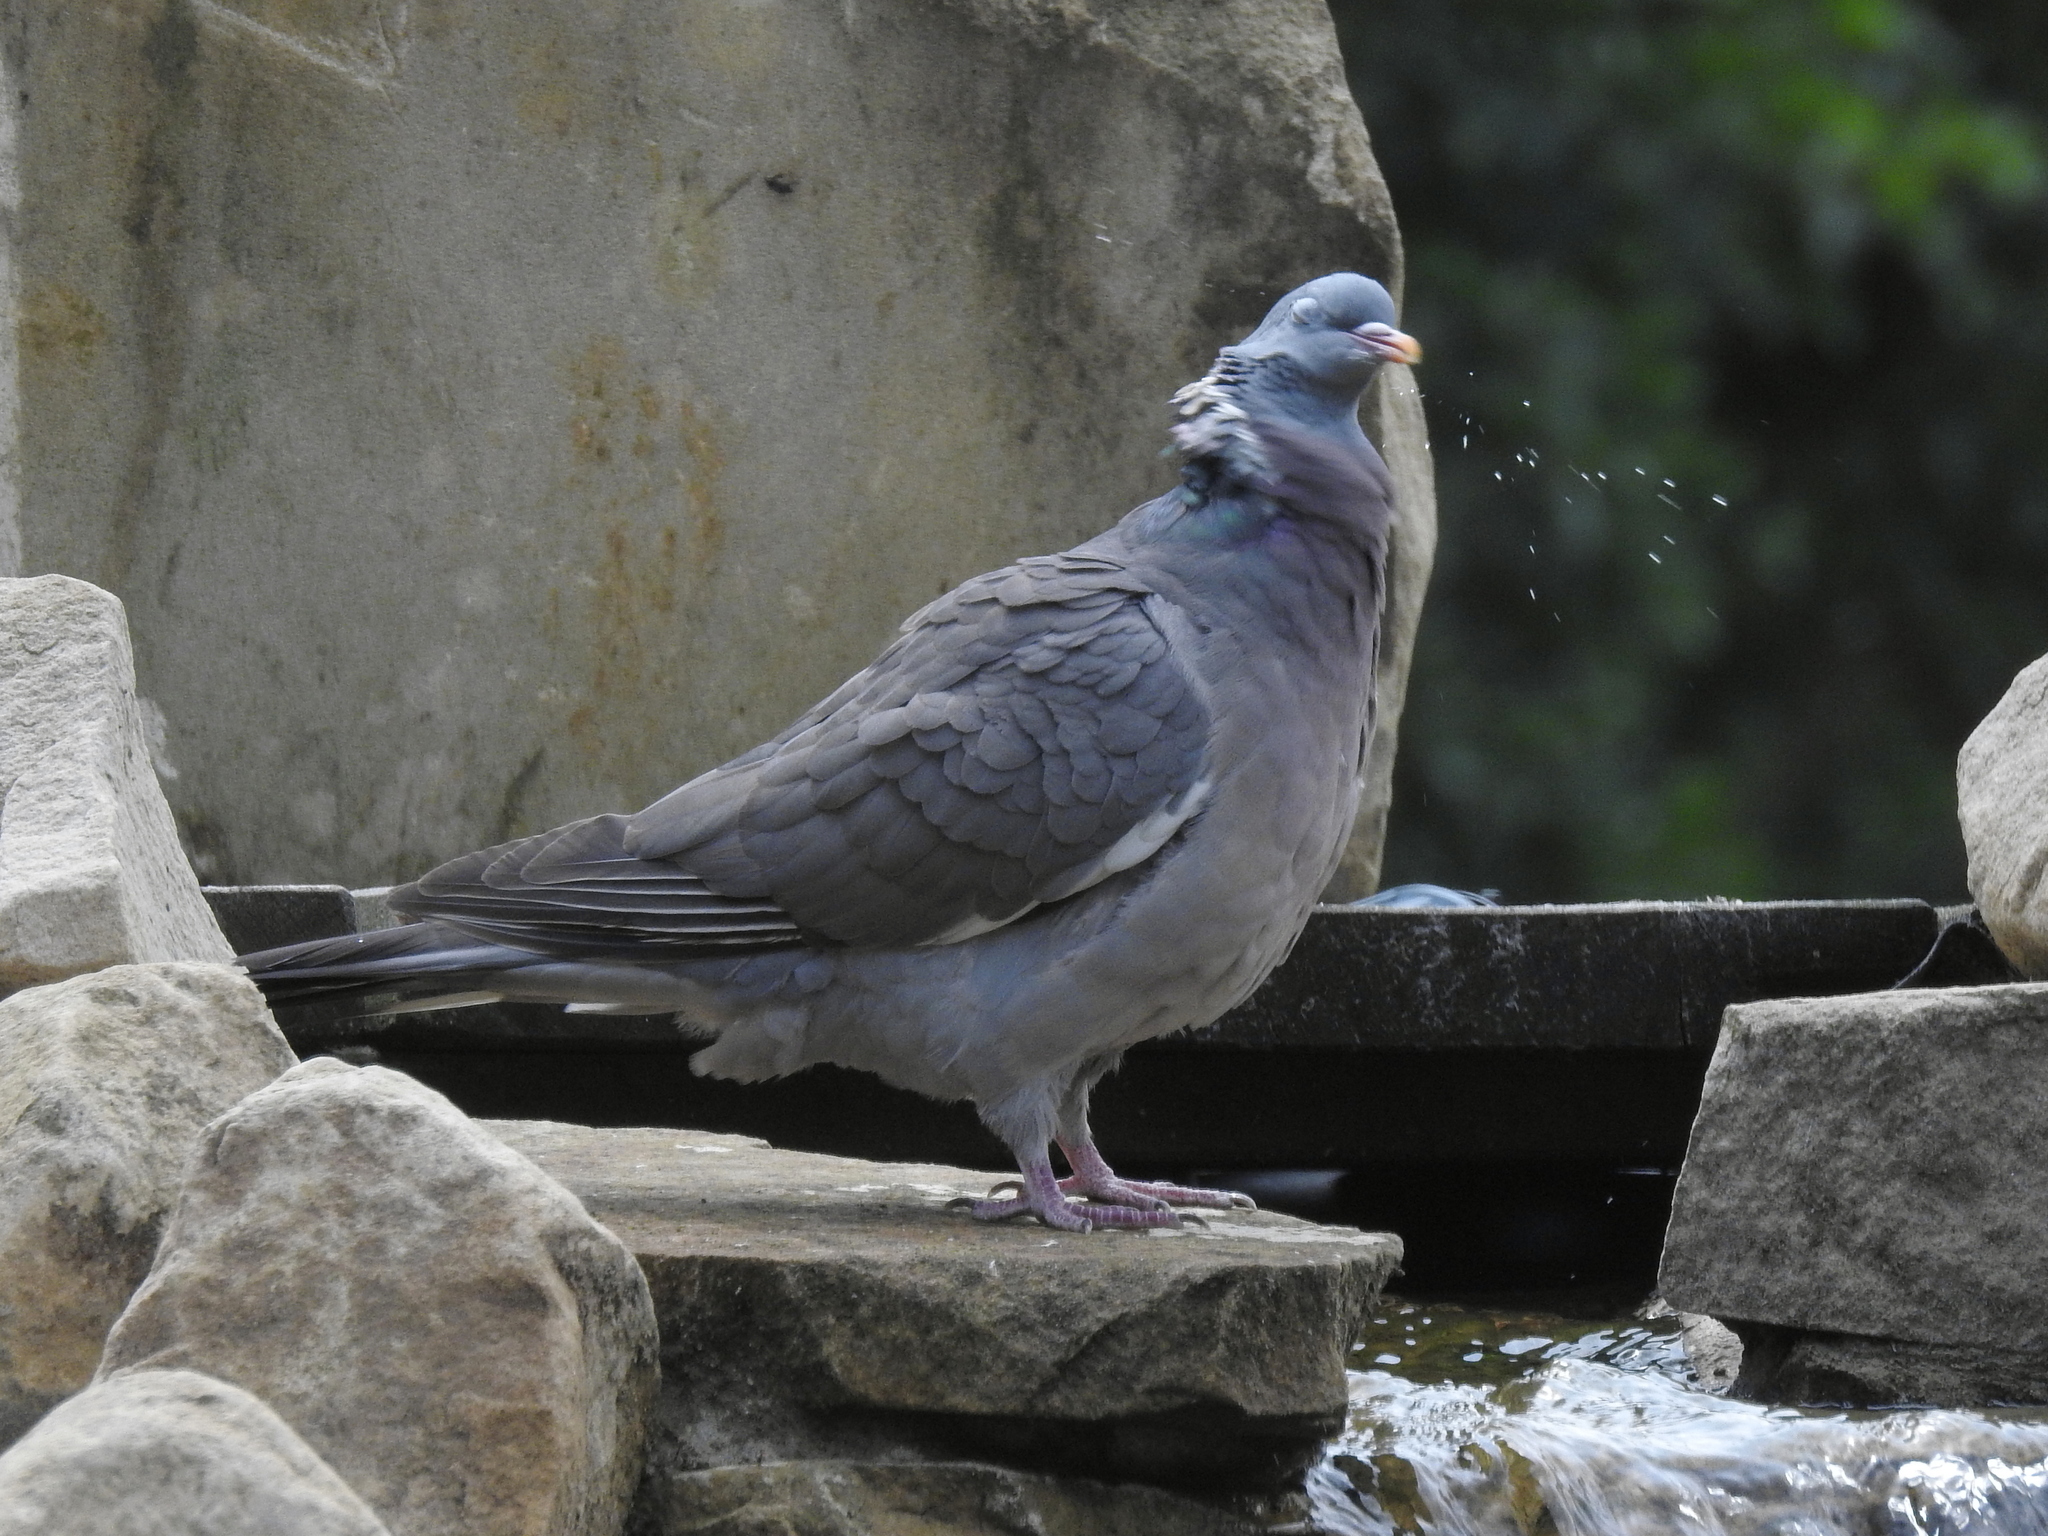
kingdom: Animalia
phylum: Chordata
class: Aves
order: Columbiformes
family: Columbidae
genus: Columba
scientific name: Columba palumbus
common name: Common wood pigeon
